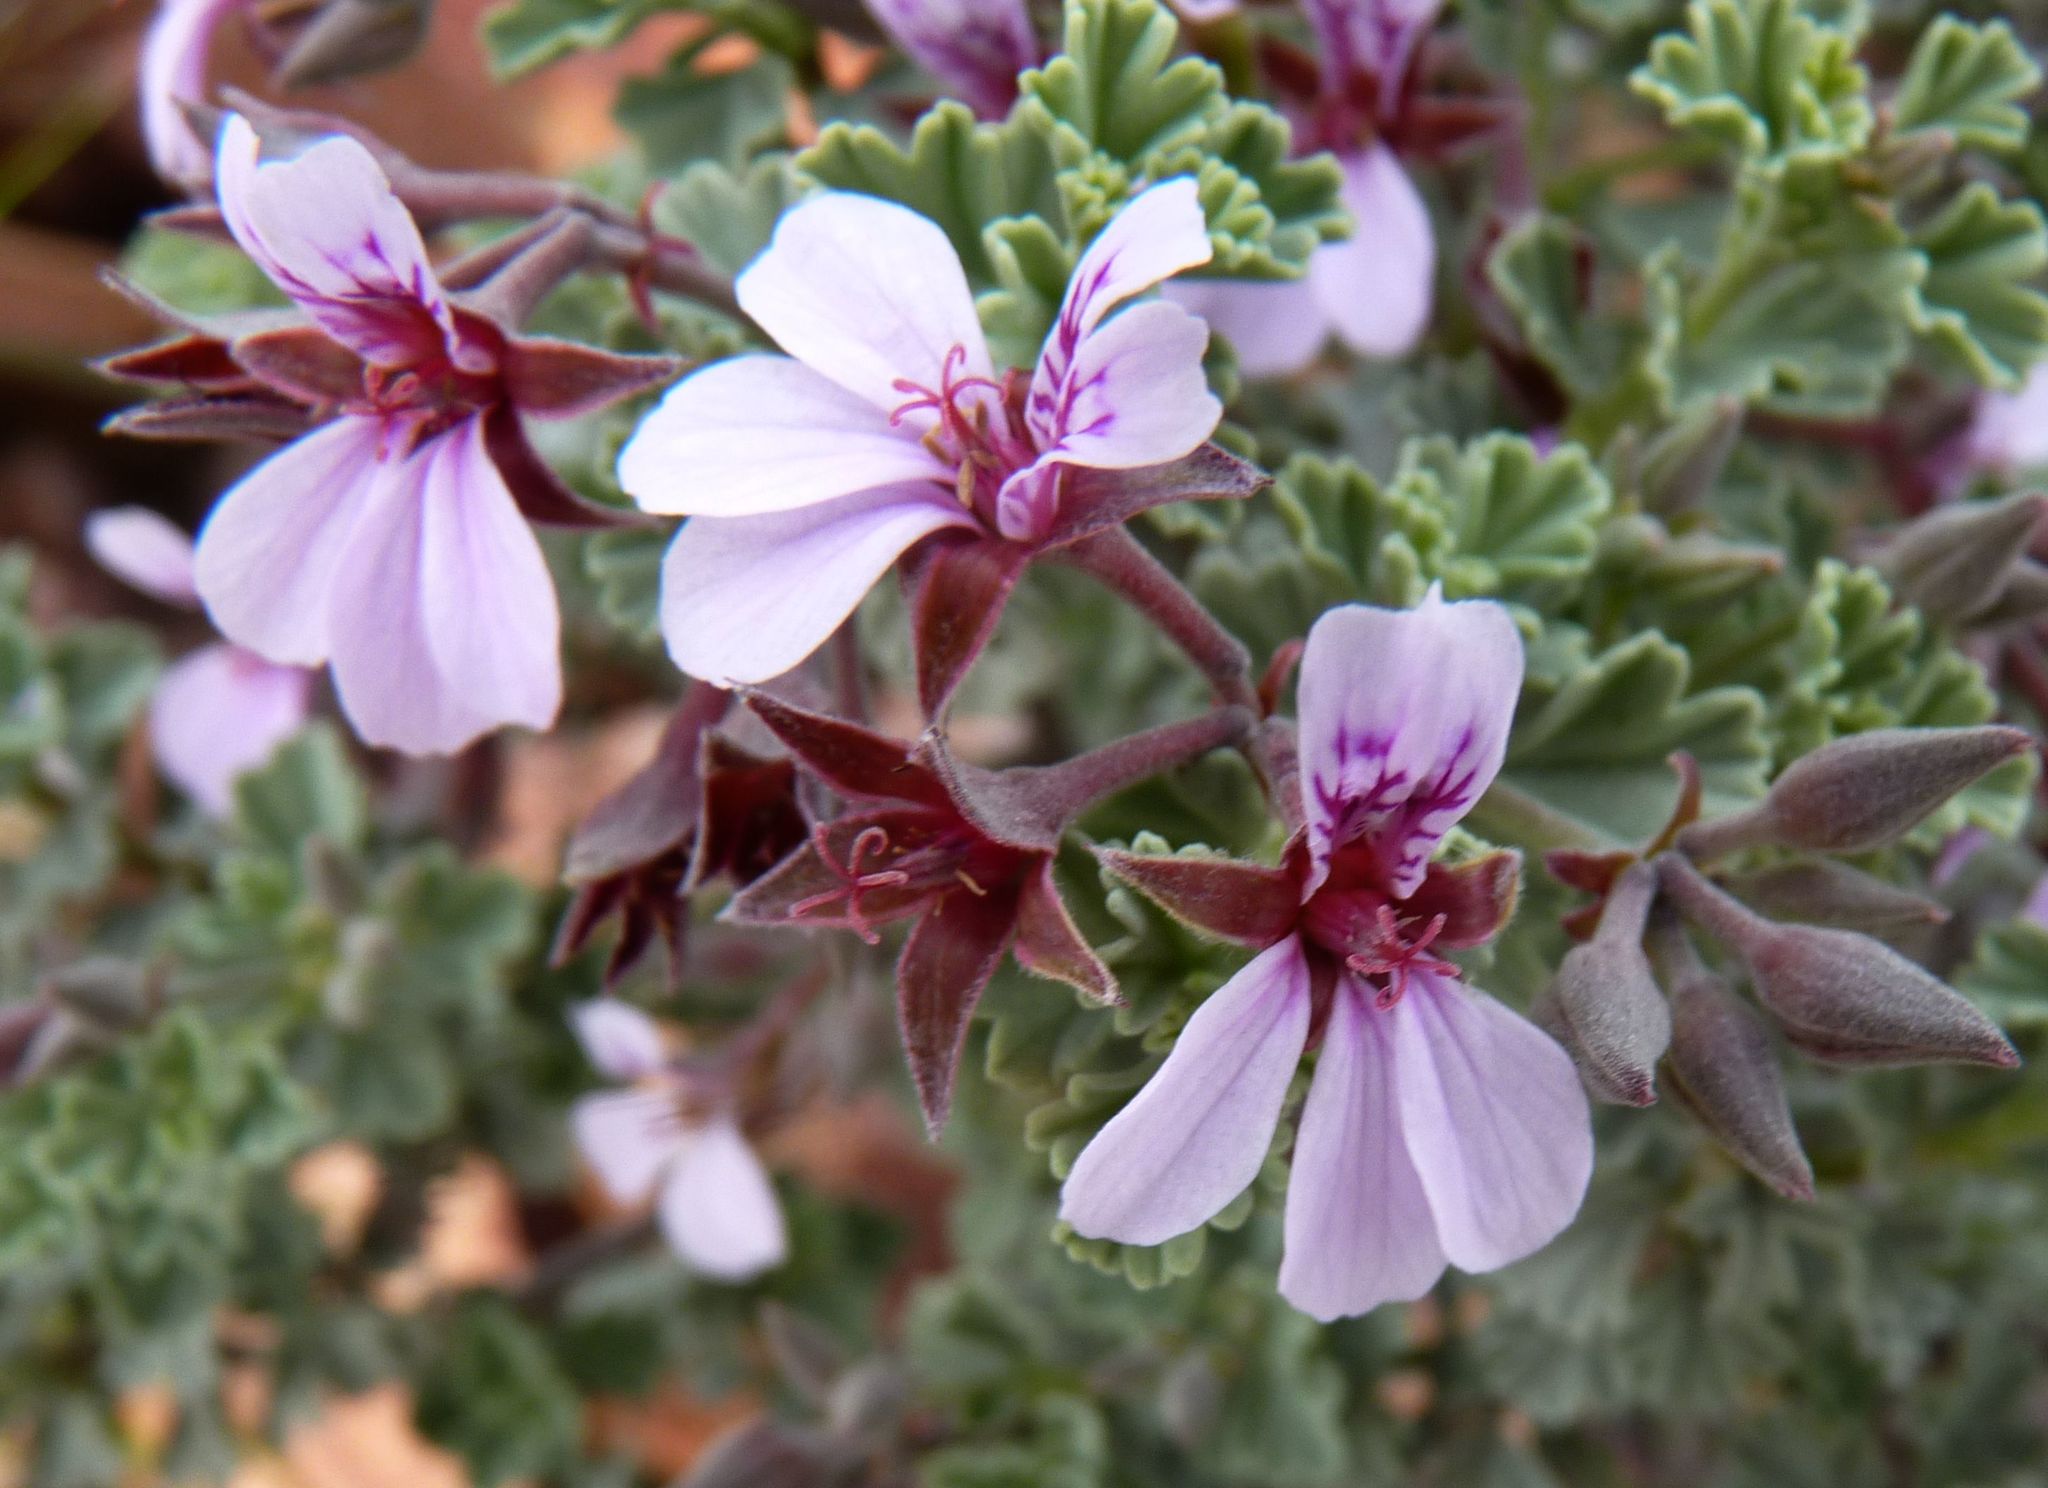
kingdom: Plantae
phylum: Tracheophyta
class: Magnoliopsida
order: Geraniales
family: Geraniaceae
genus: Pelargonium
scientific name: Pelargonium exstipulatum
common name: Soft-leaf trifid pelargonium
